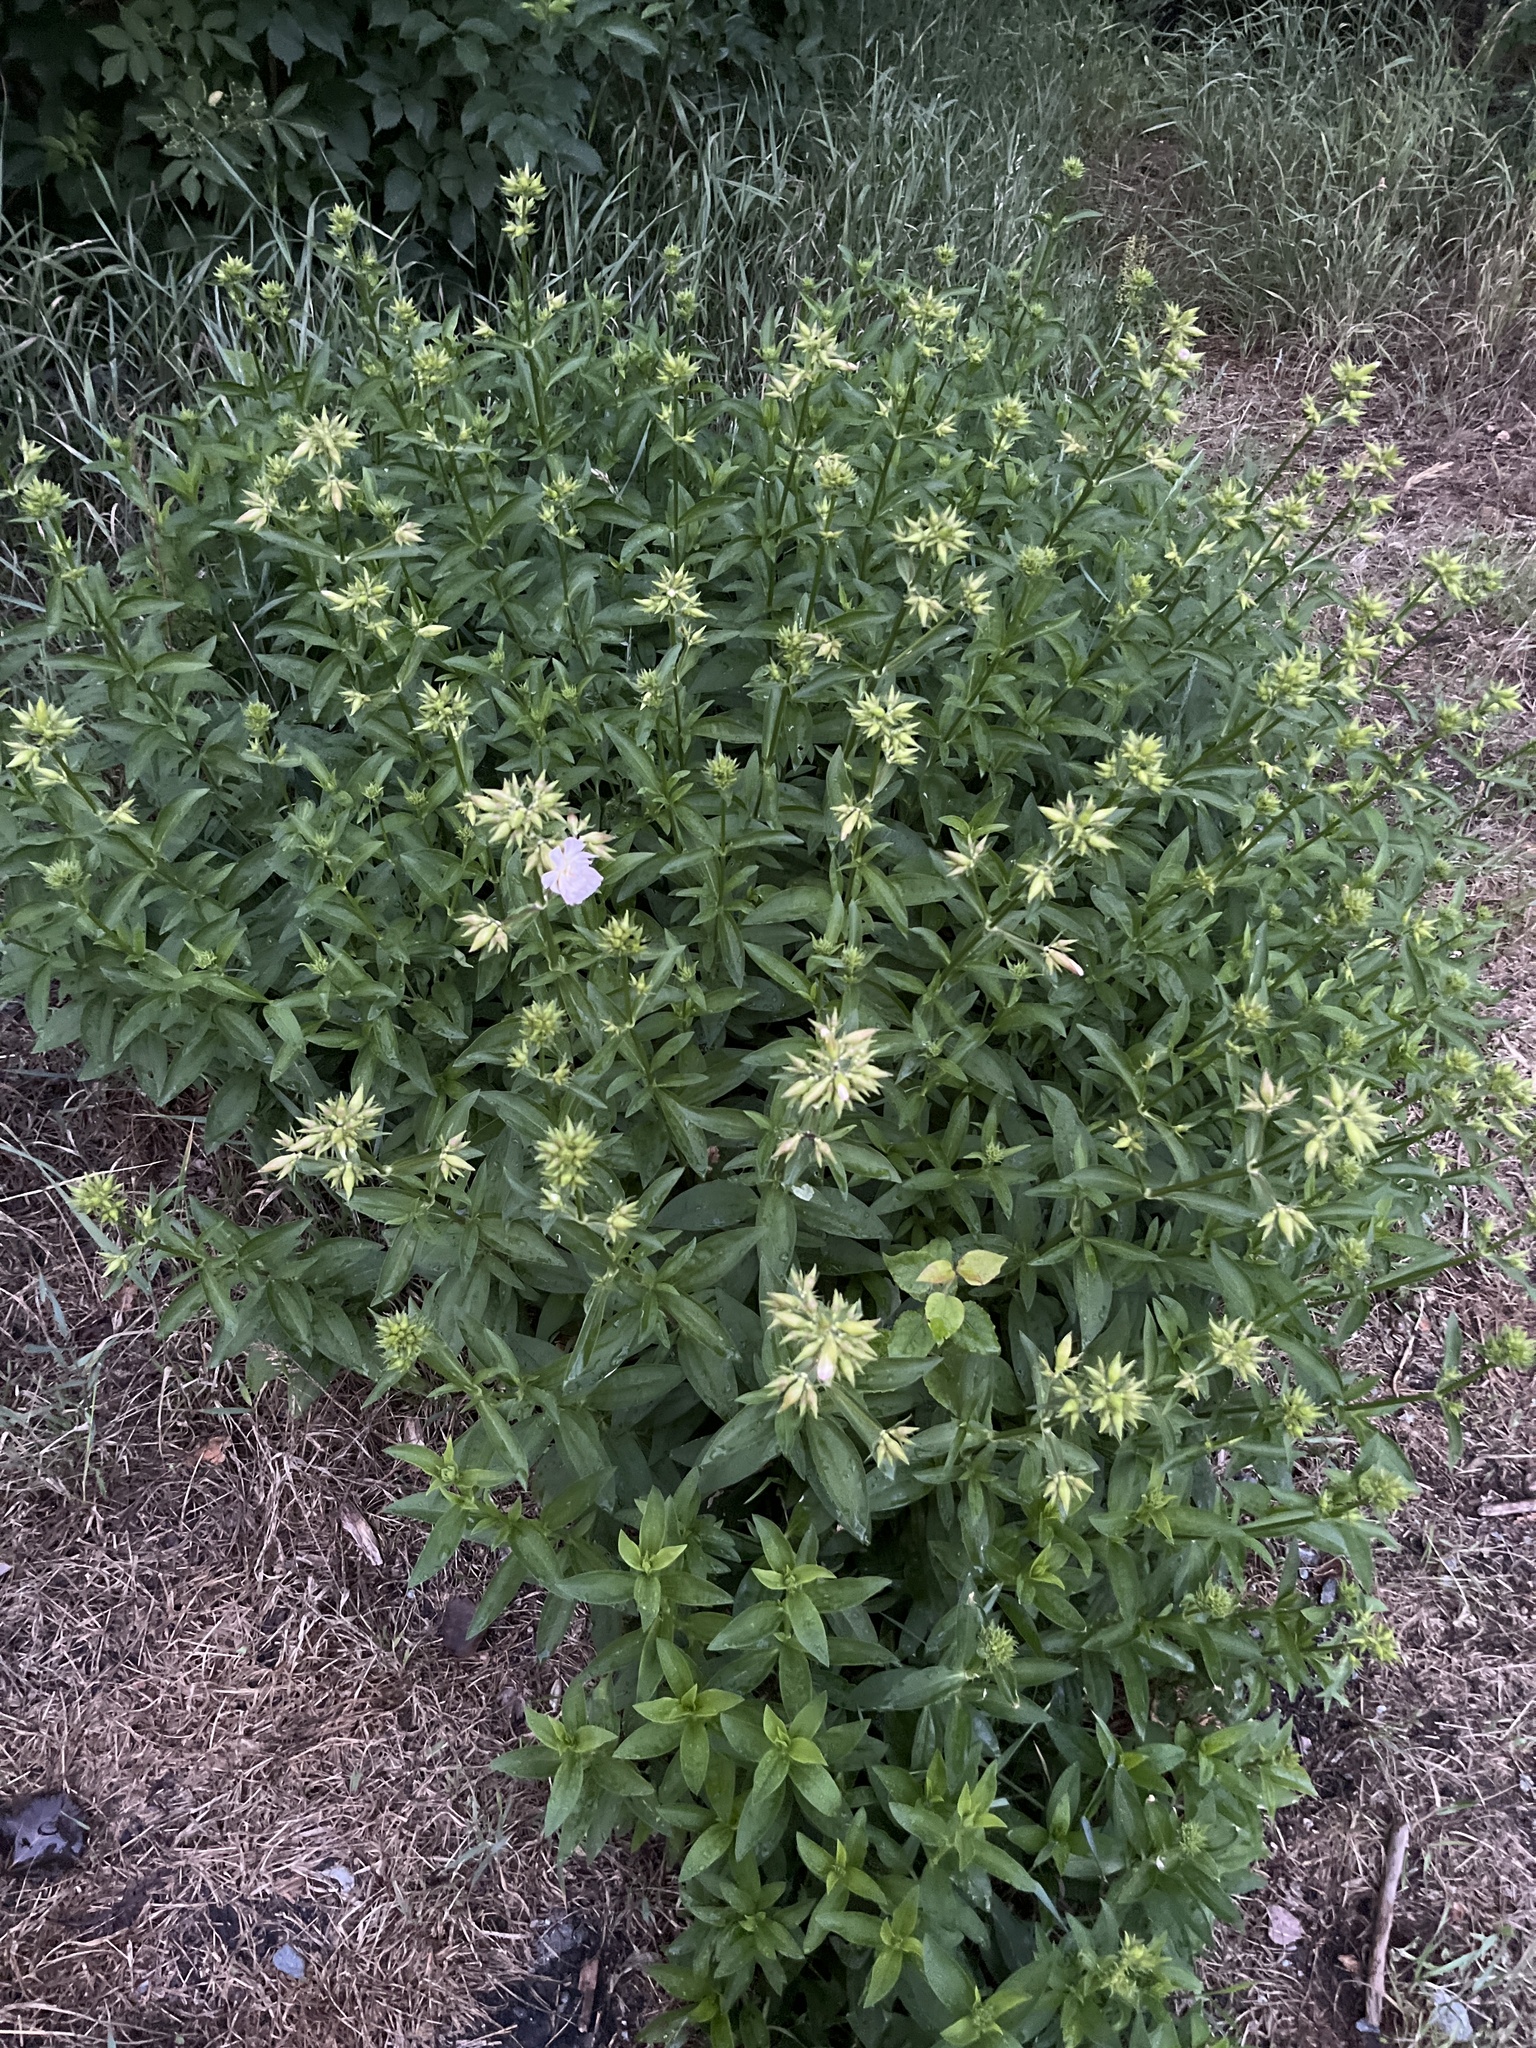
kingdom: Plantae
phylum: Tracheophyta
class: Magnoliopsida
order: Caryophyllales
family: Caryophyllaceae
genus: Saponaria
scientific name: Saponaria officinalis
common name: Soapwort
